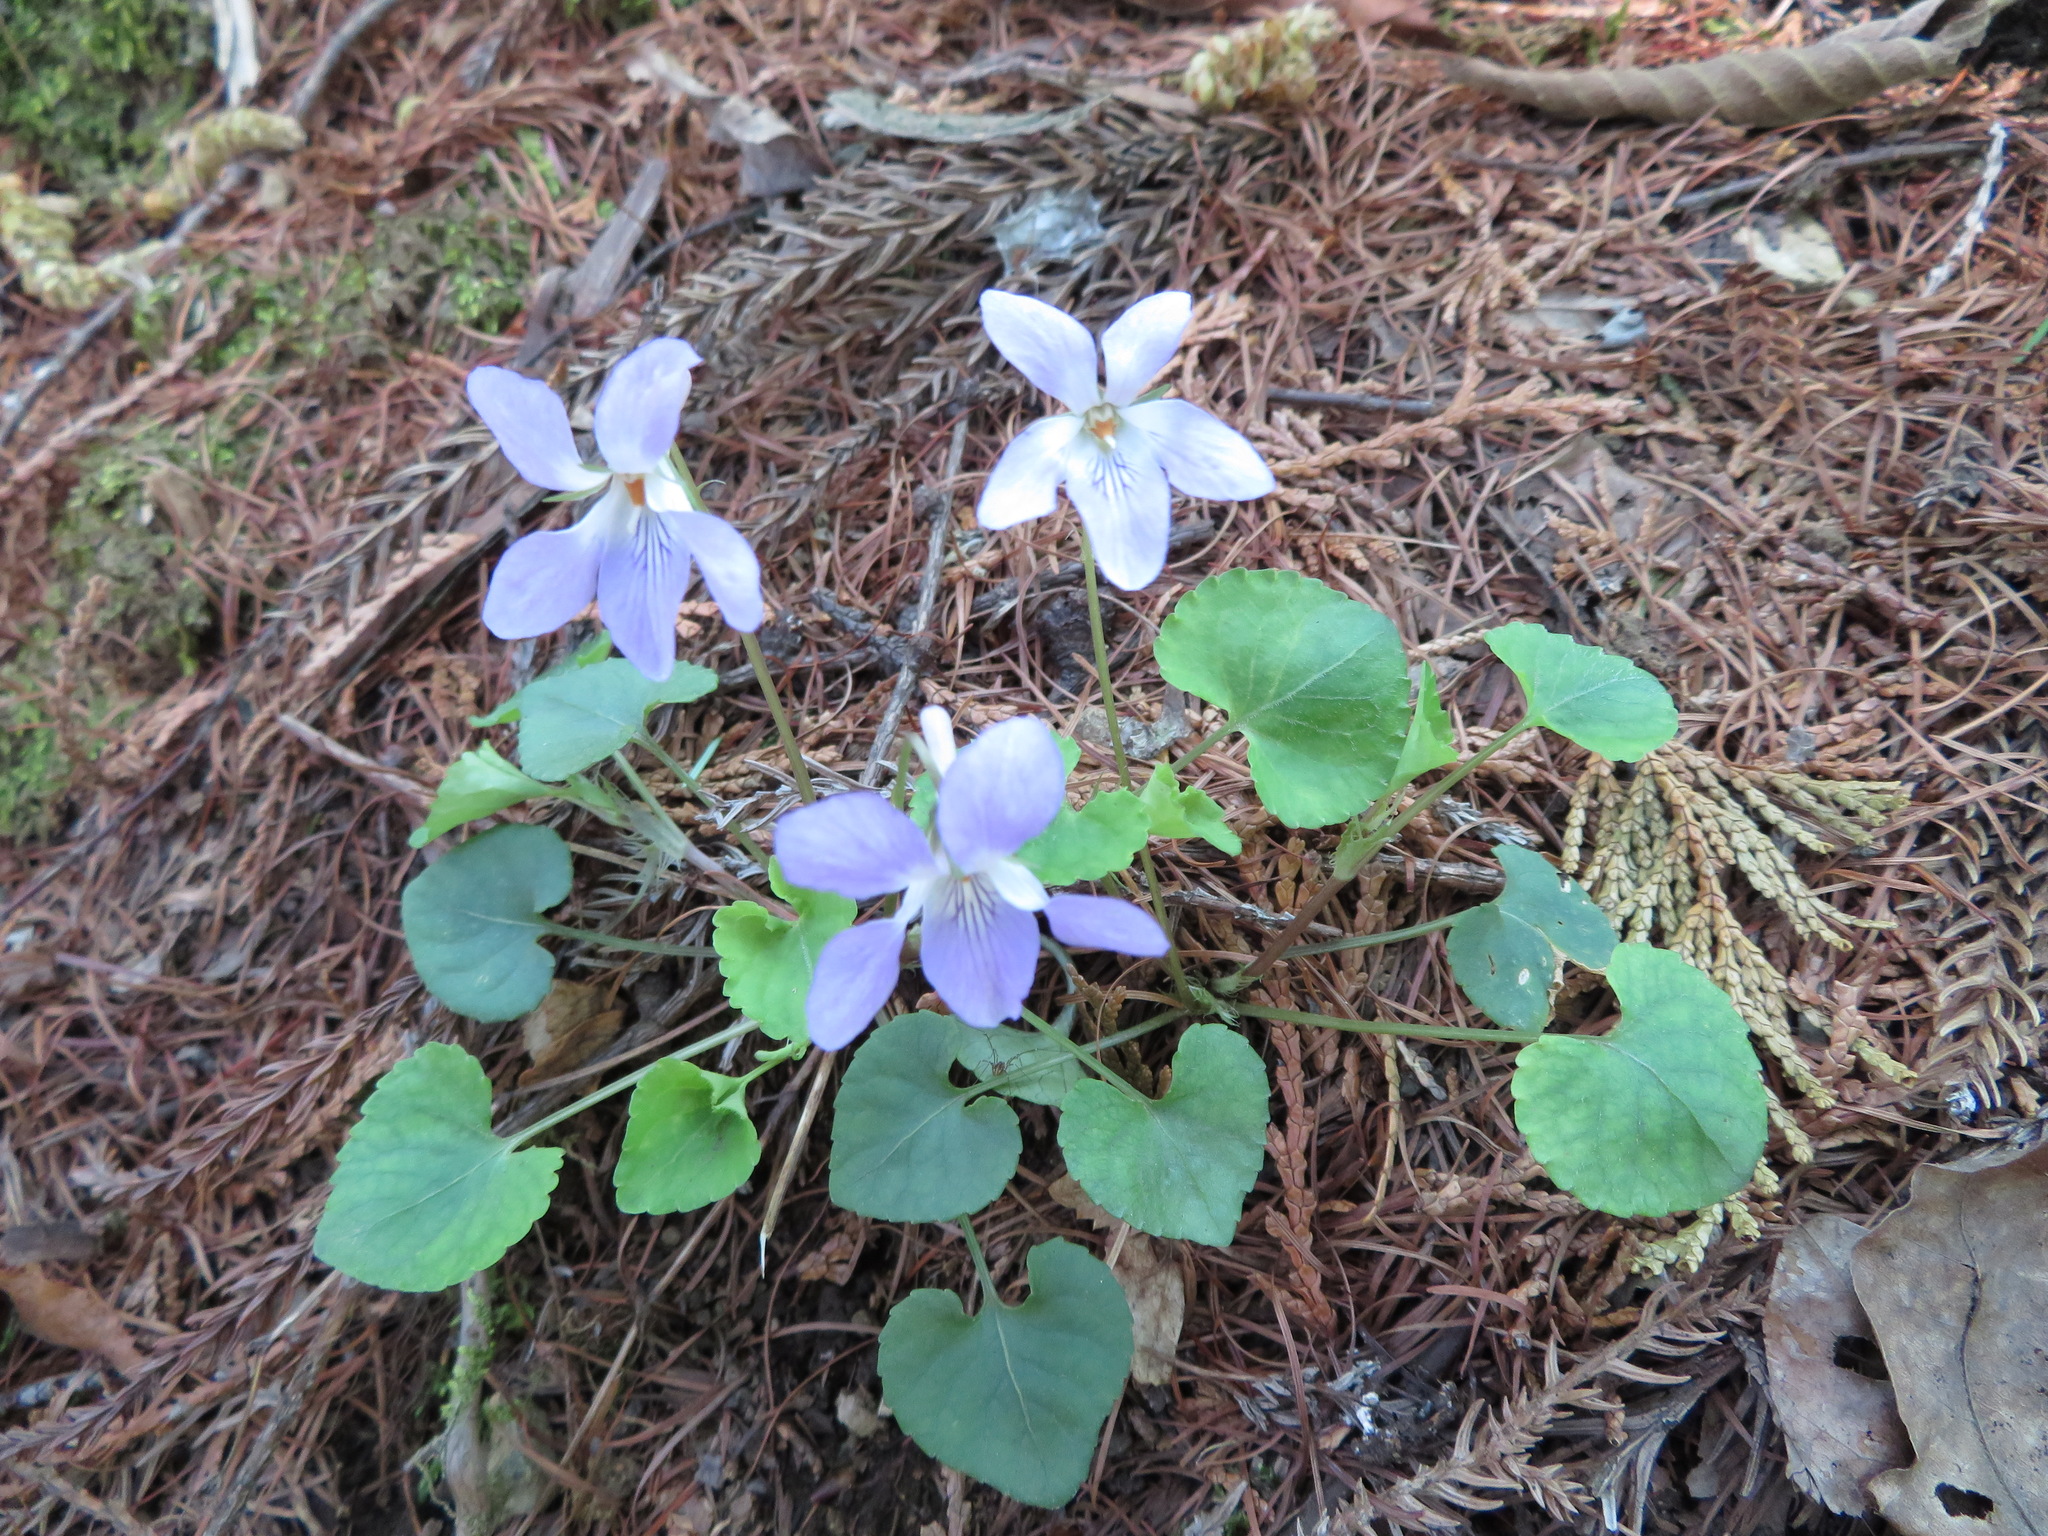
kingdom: Plantae
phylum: Tracheophyta
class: Magnoliopsida
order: Malpighiales
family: Violaceae
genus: Viola
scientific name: Viola grypoceras
